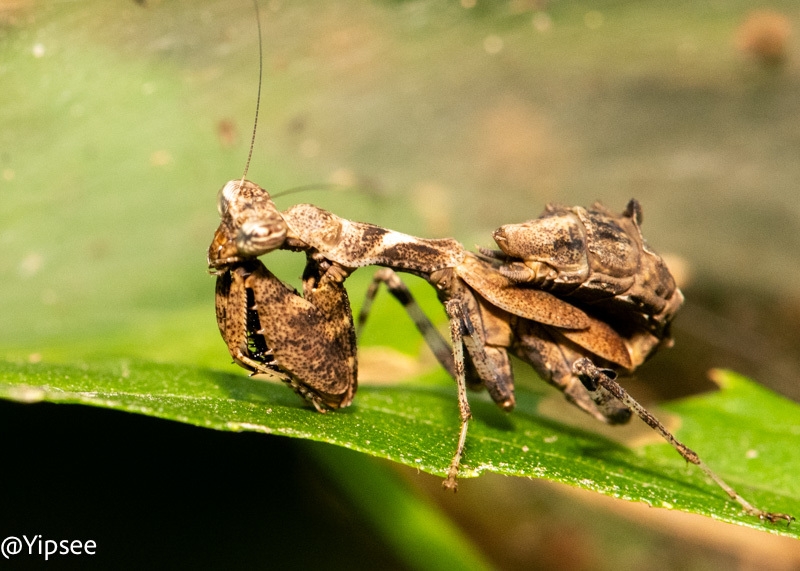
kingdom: Animalia
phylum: Arthropoda
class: Insecta
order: Mantodea
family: Hymenopodidae
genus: Acromantis
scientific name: Acromantis japonica
